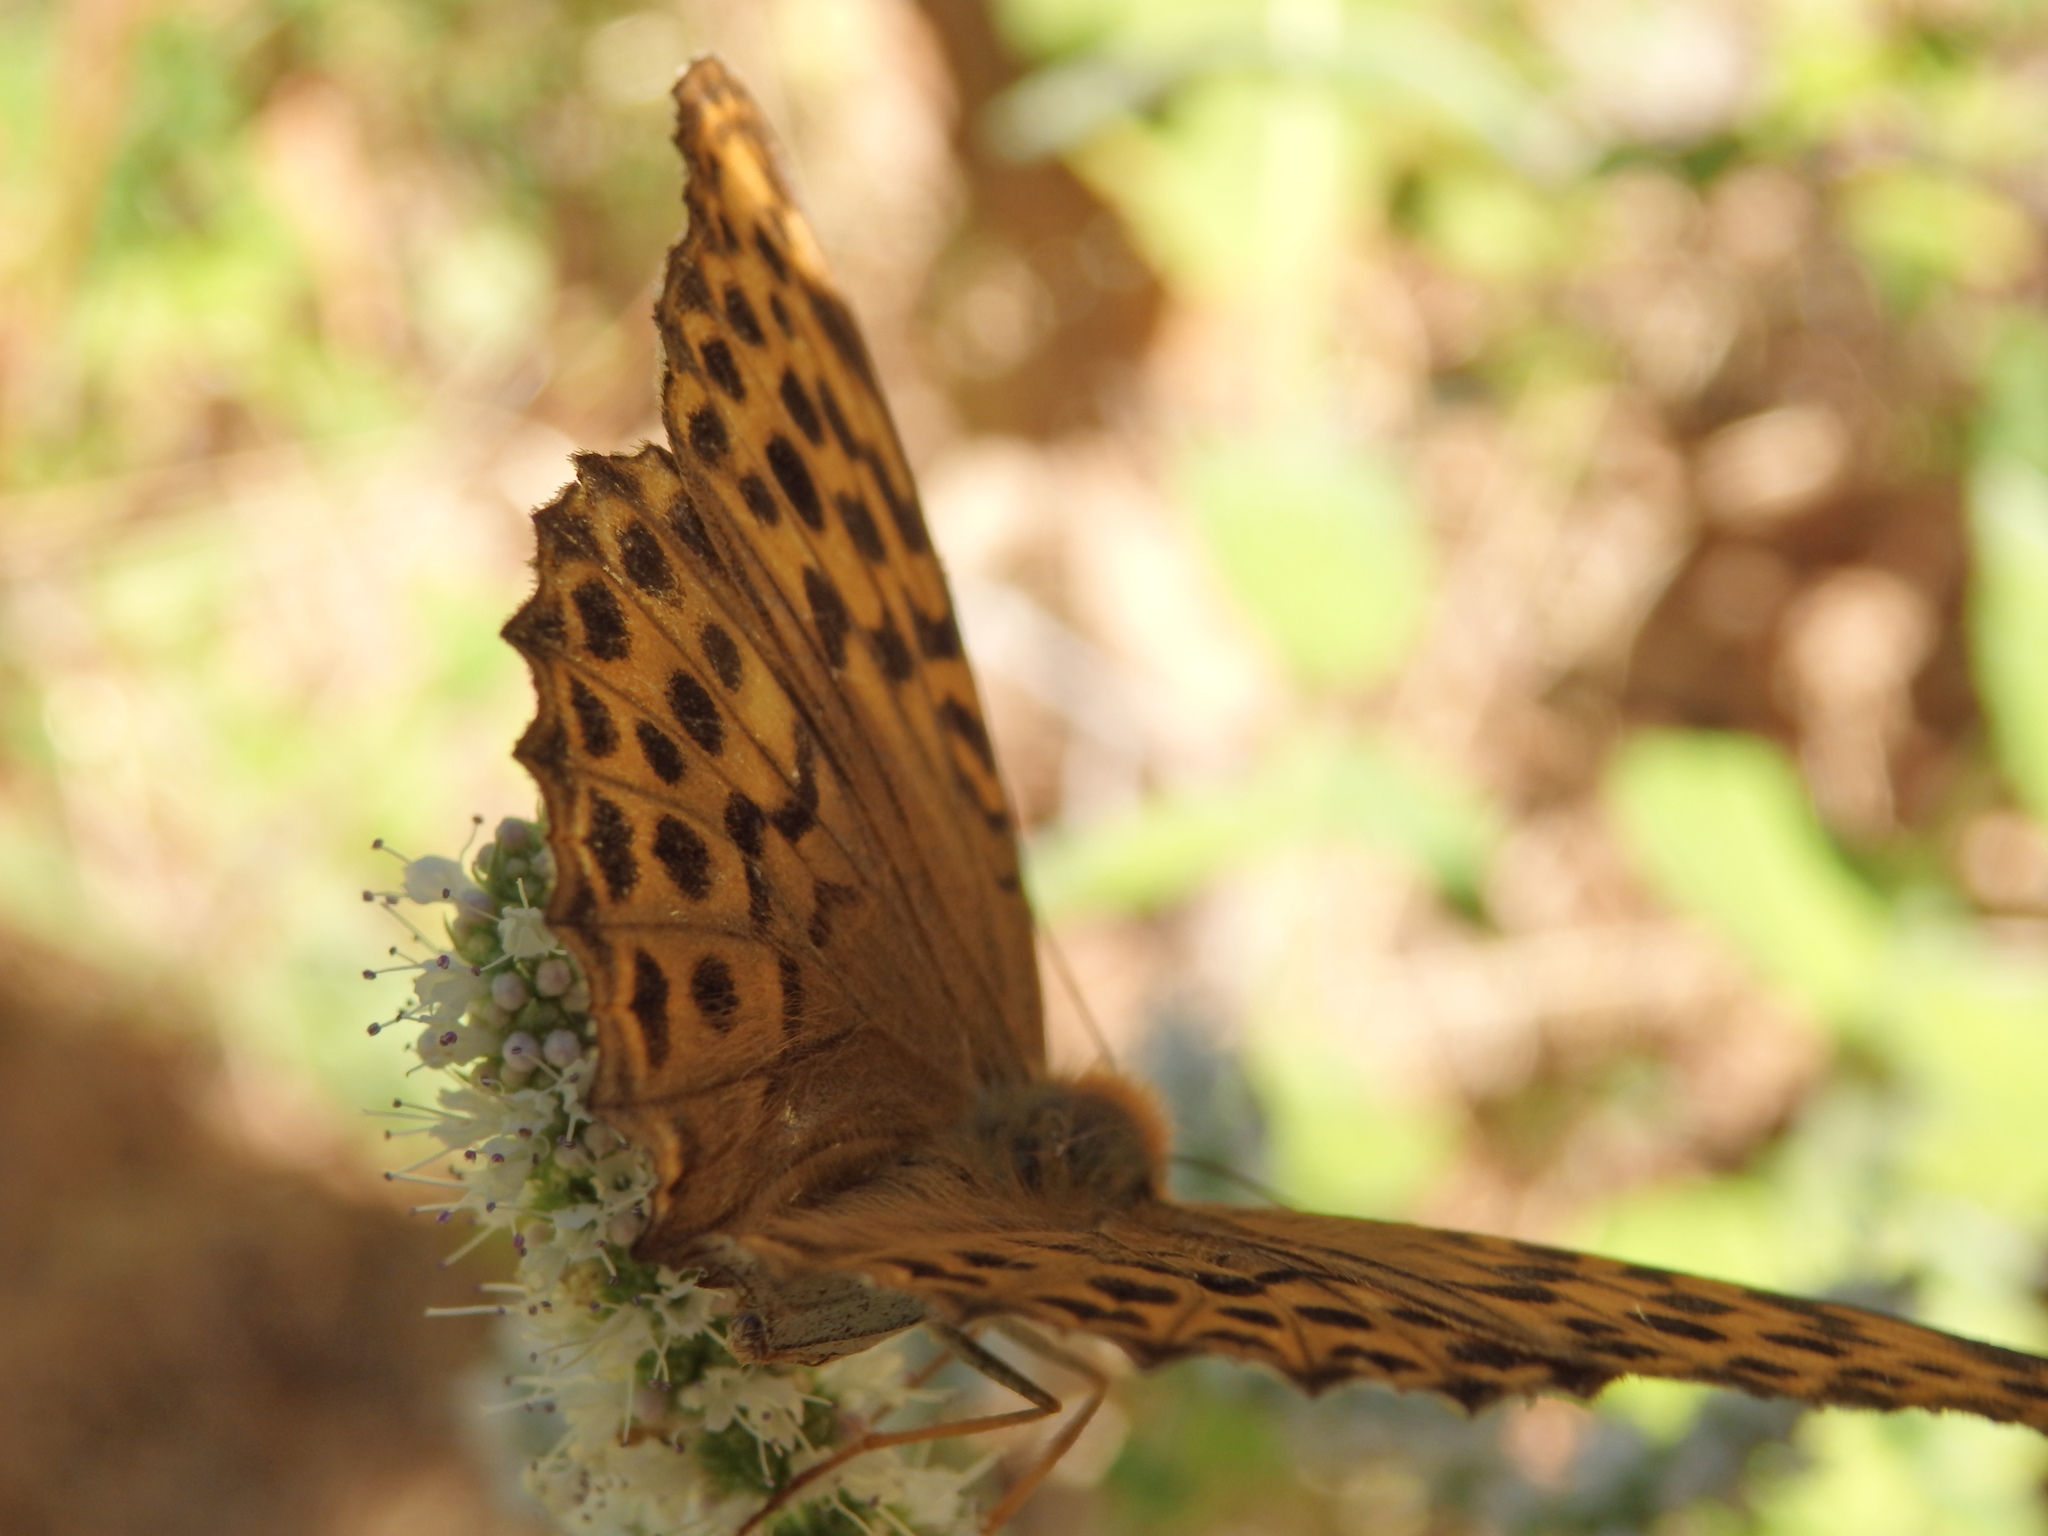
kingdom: Animalia
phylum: Arthropoda
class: Insecta
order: Lepidoptera
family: Nymphalidae
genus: Argynnis
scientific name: Argynnis paphia
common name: Silver-washed fritillary
